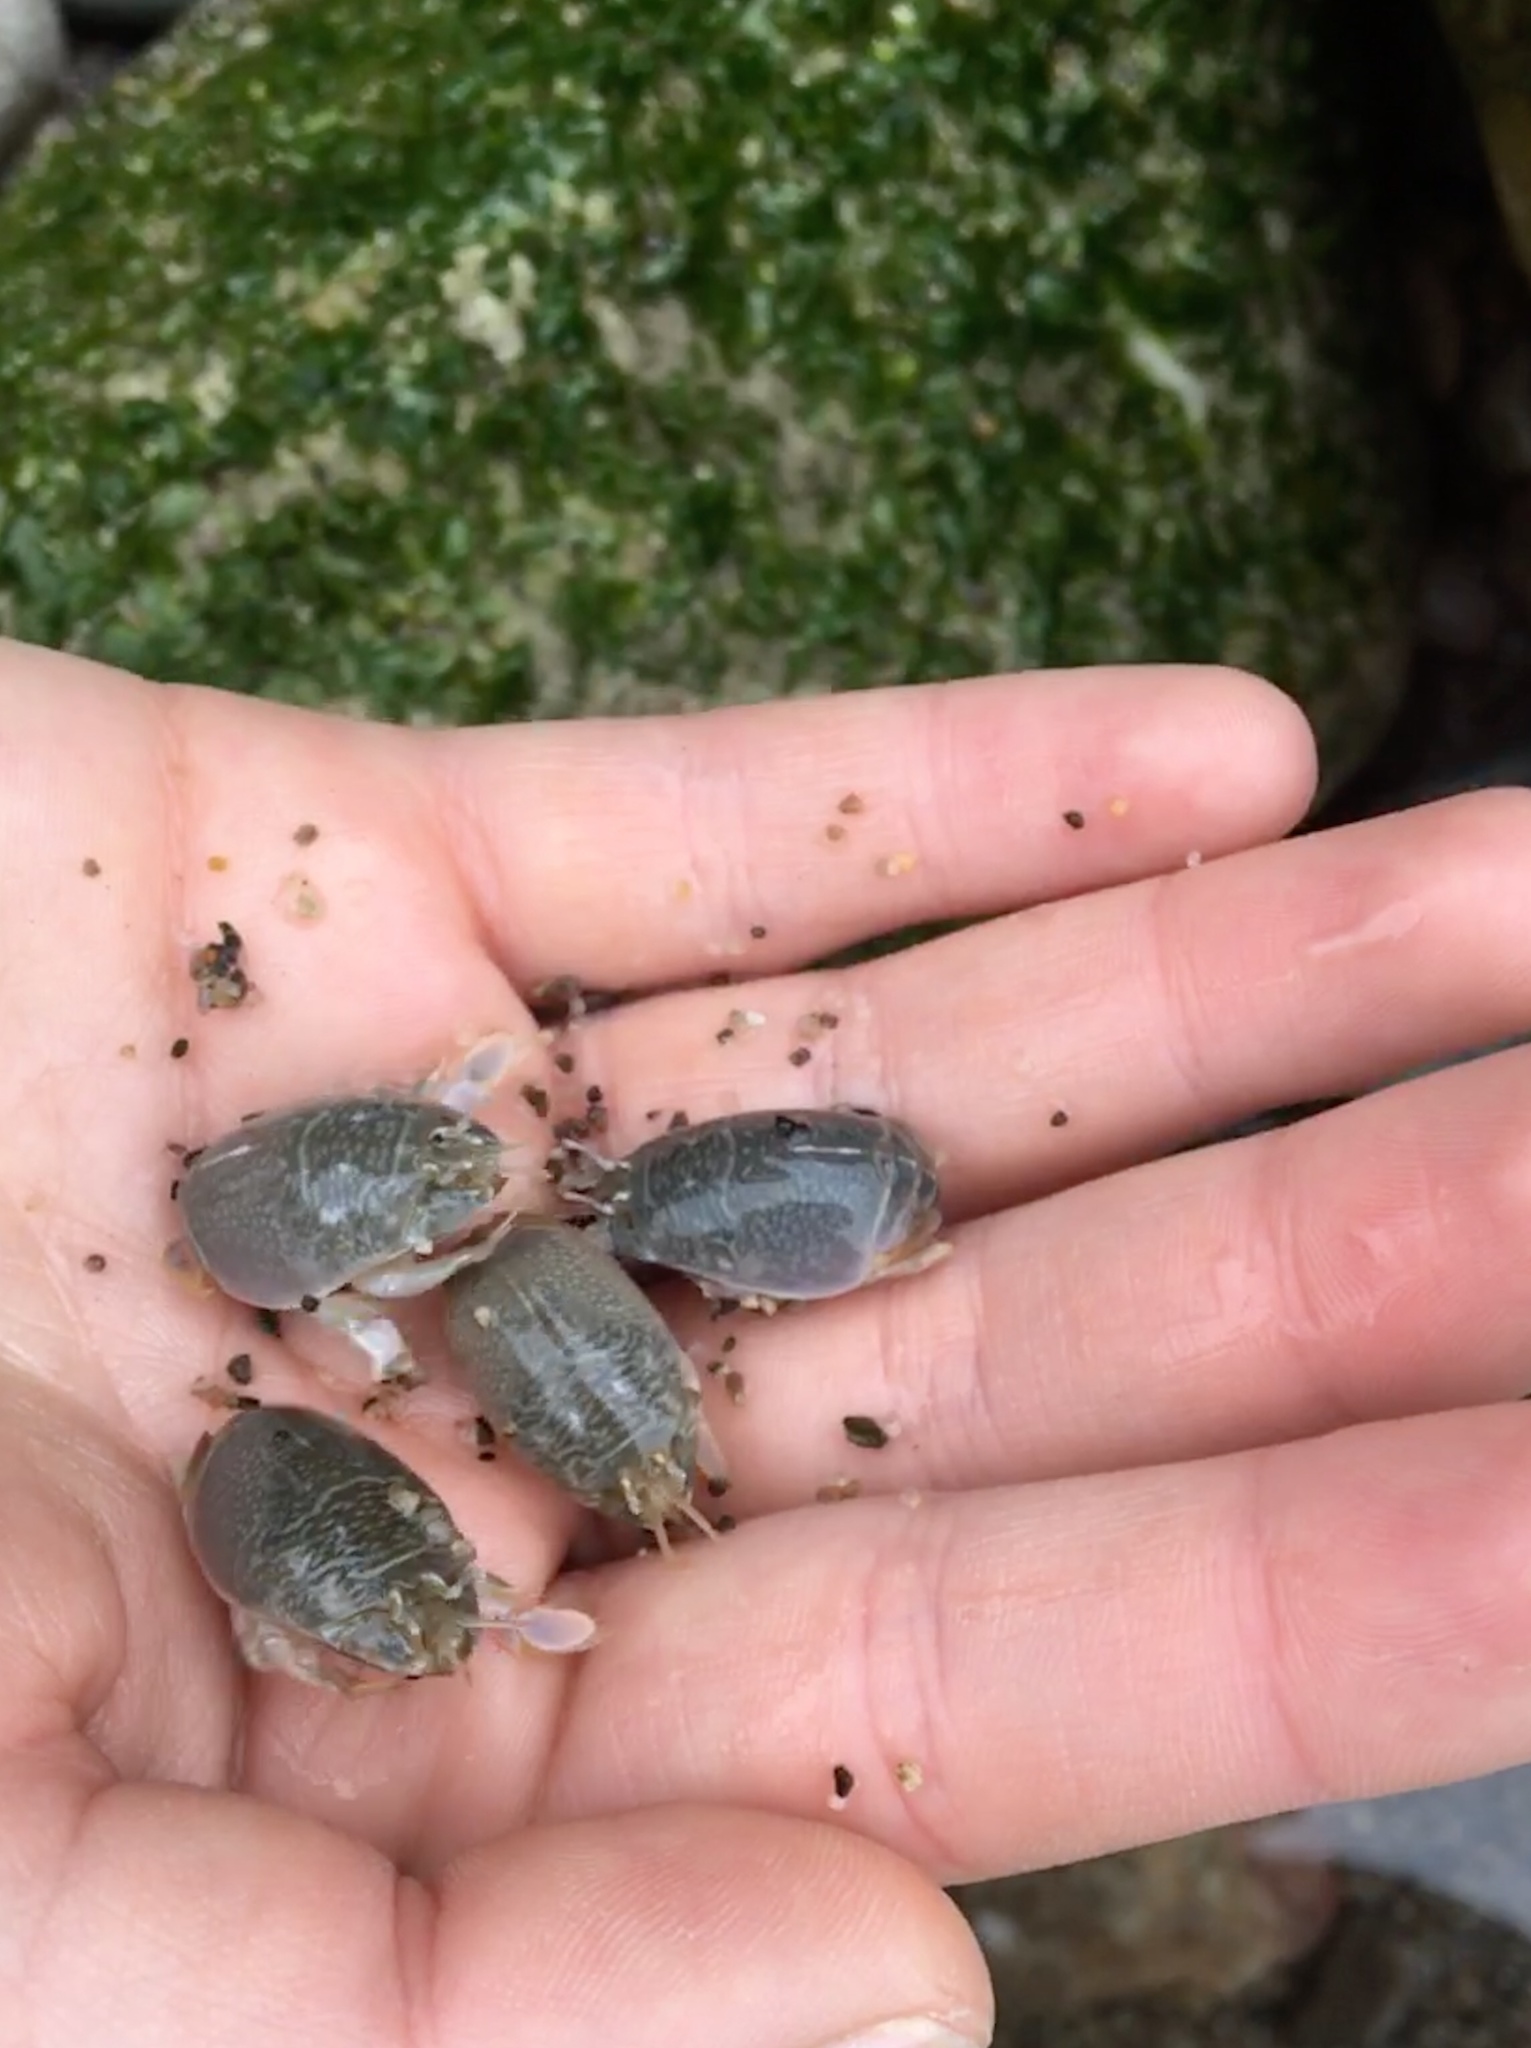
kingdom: Animalia
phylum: Arthropoda
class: Malacostraca
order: Decapoda
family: Hippidae
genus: Emerita
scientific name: Emerita analoga
